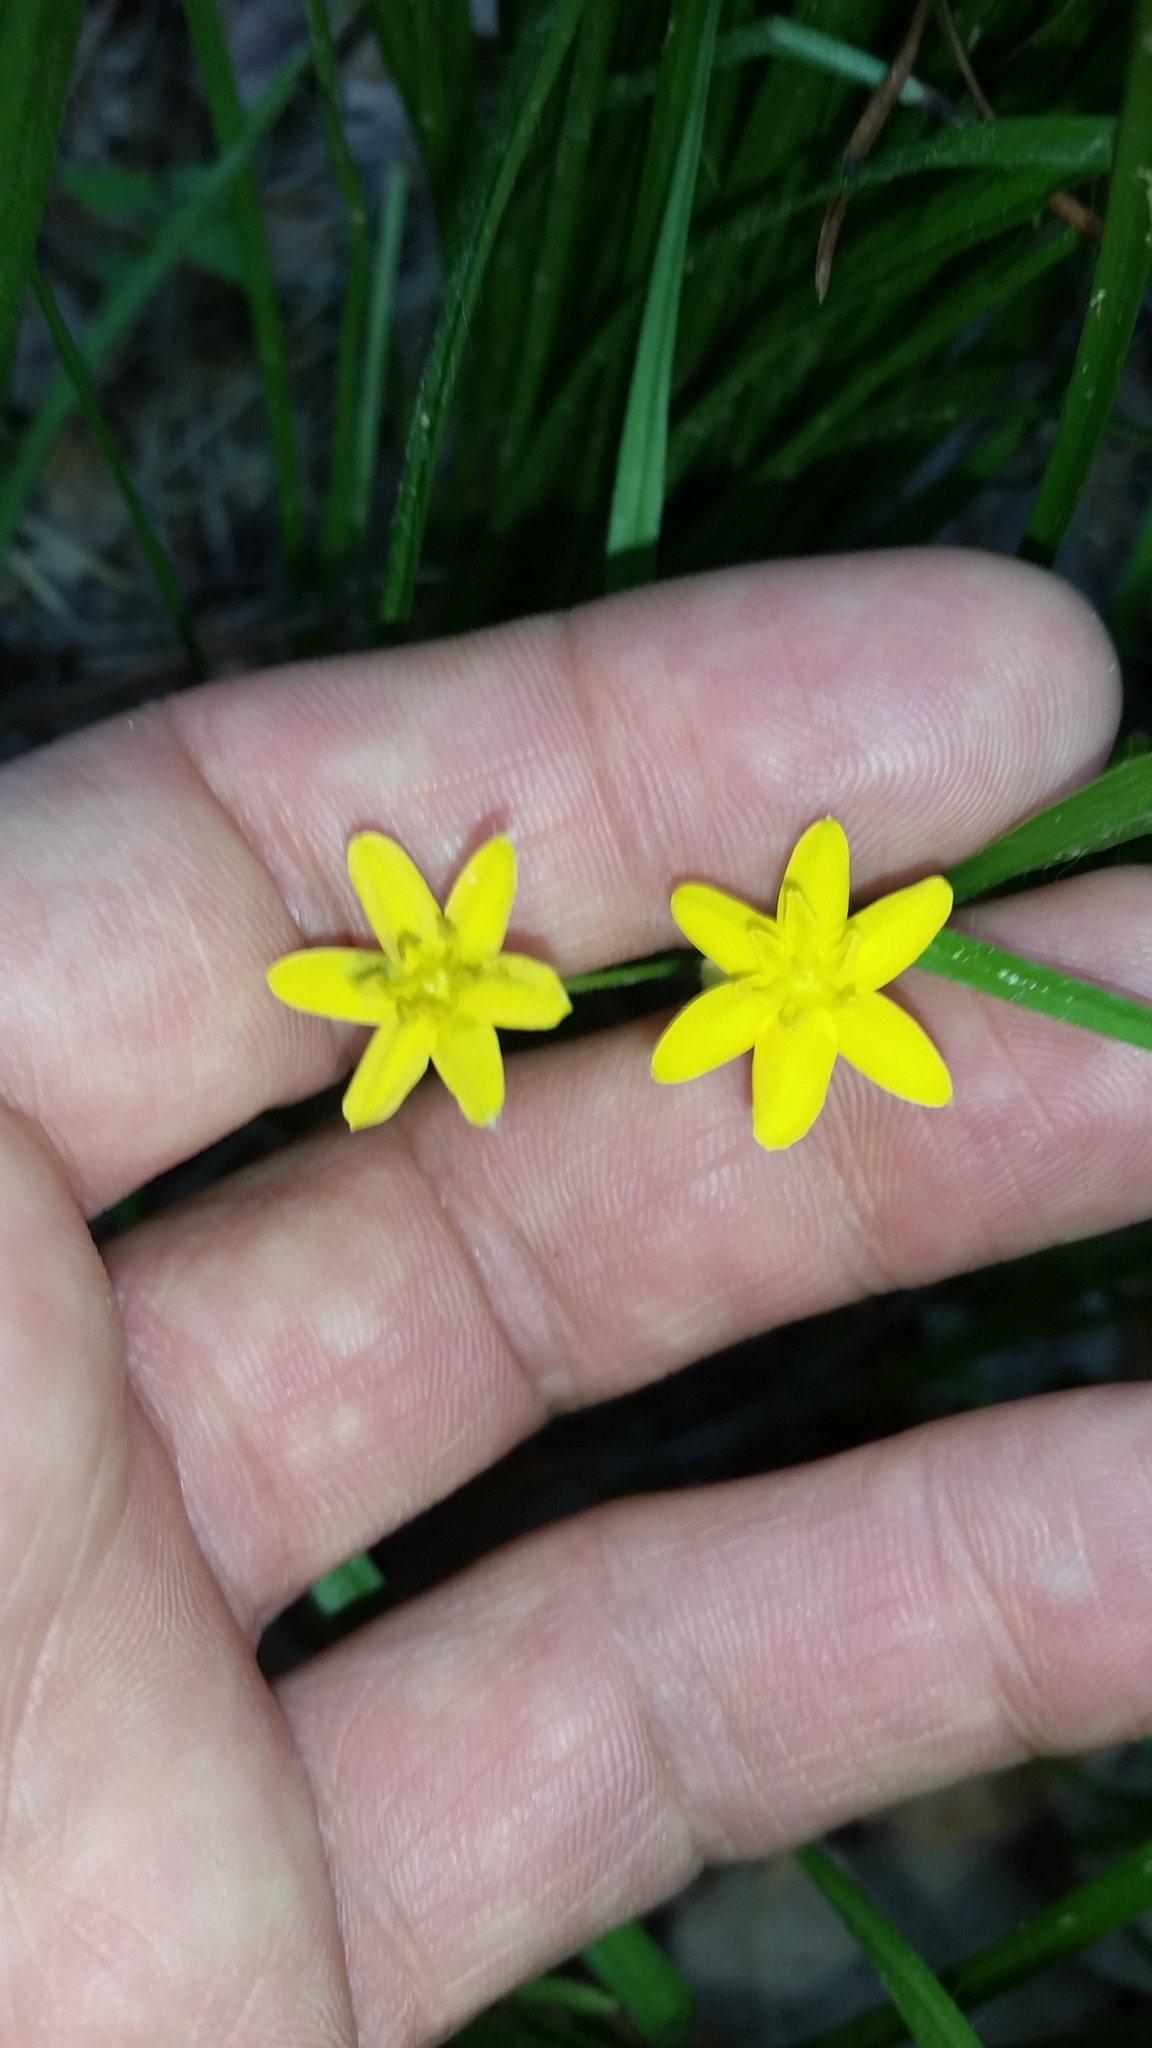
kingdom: Plantae
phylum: Tracheophyta
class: Liliopsida
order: Asparagales
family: Hypoxidaceae
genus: Hypoxis
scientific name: Hypoxis hirsuta
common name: Common goldstar
